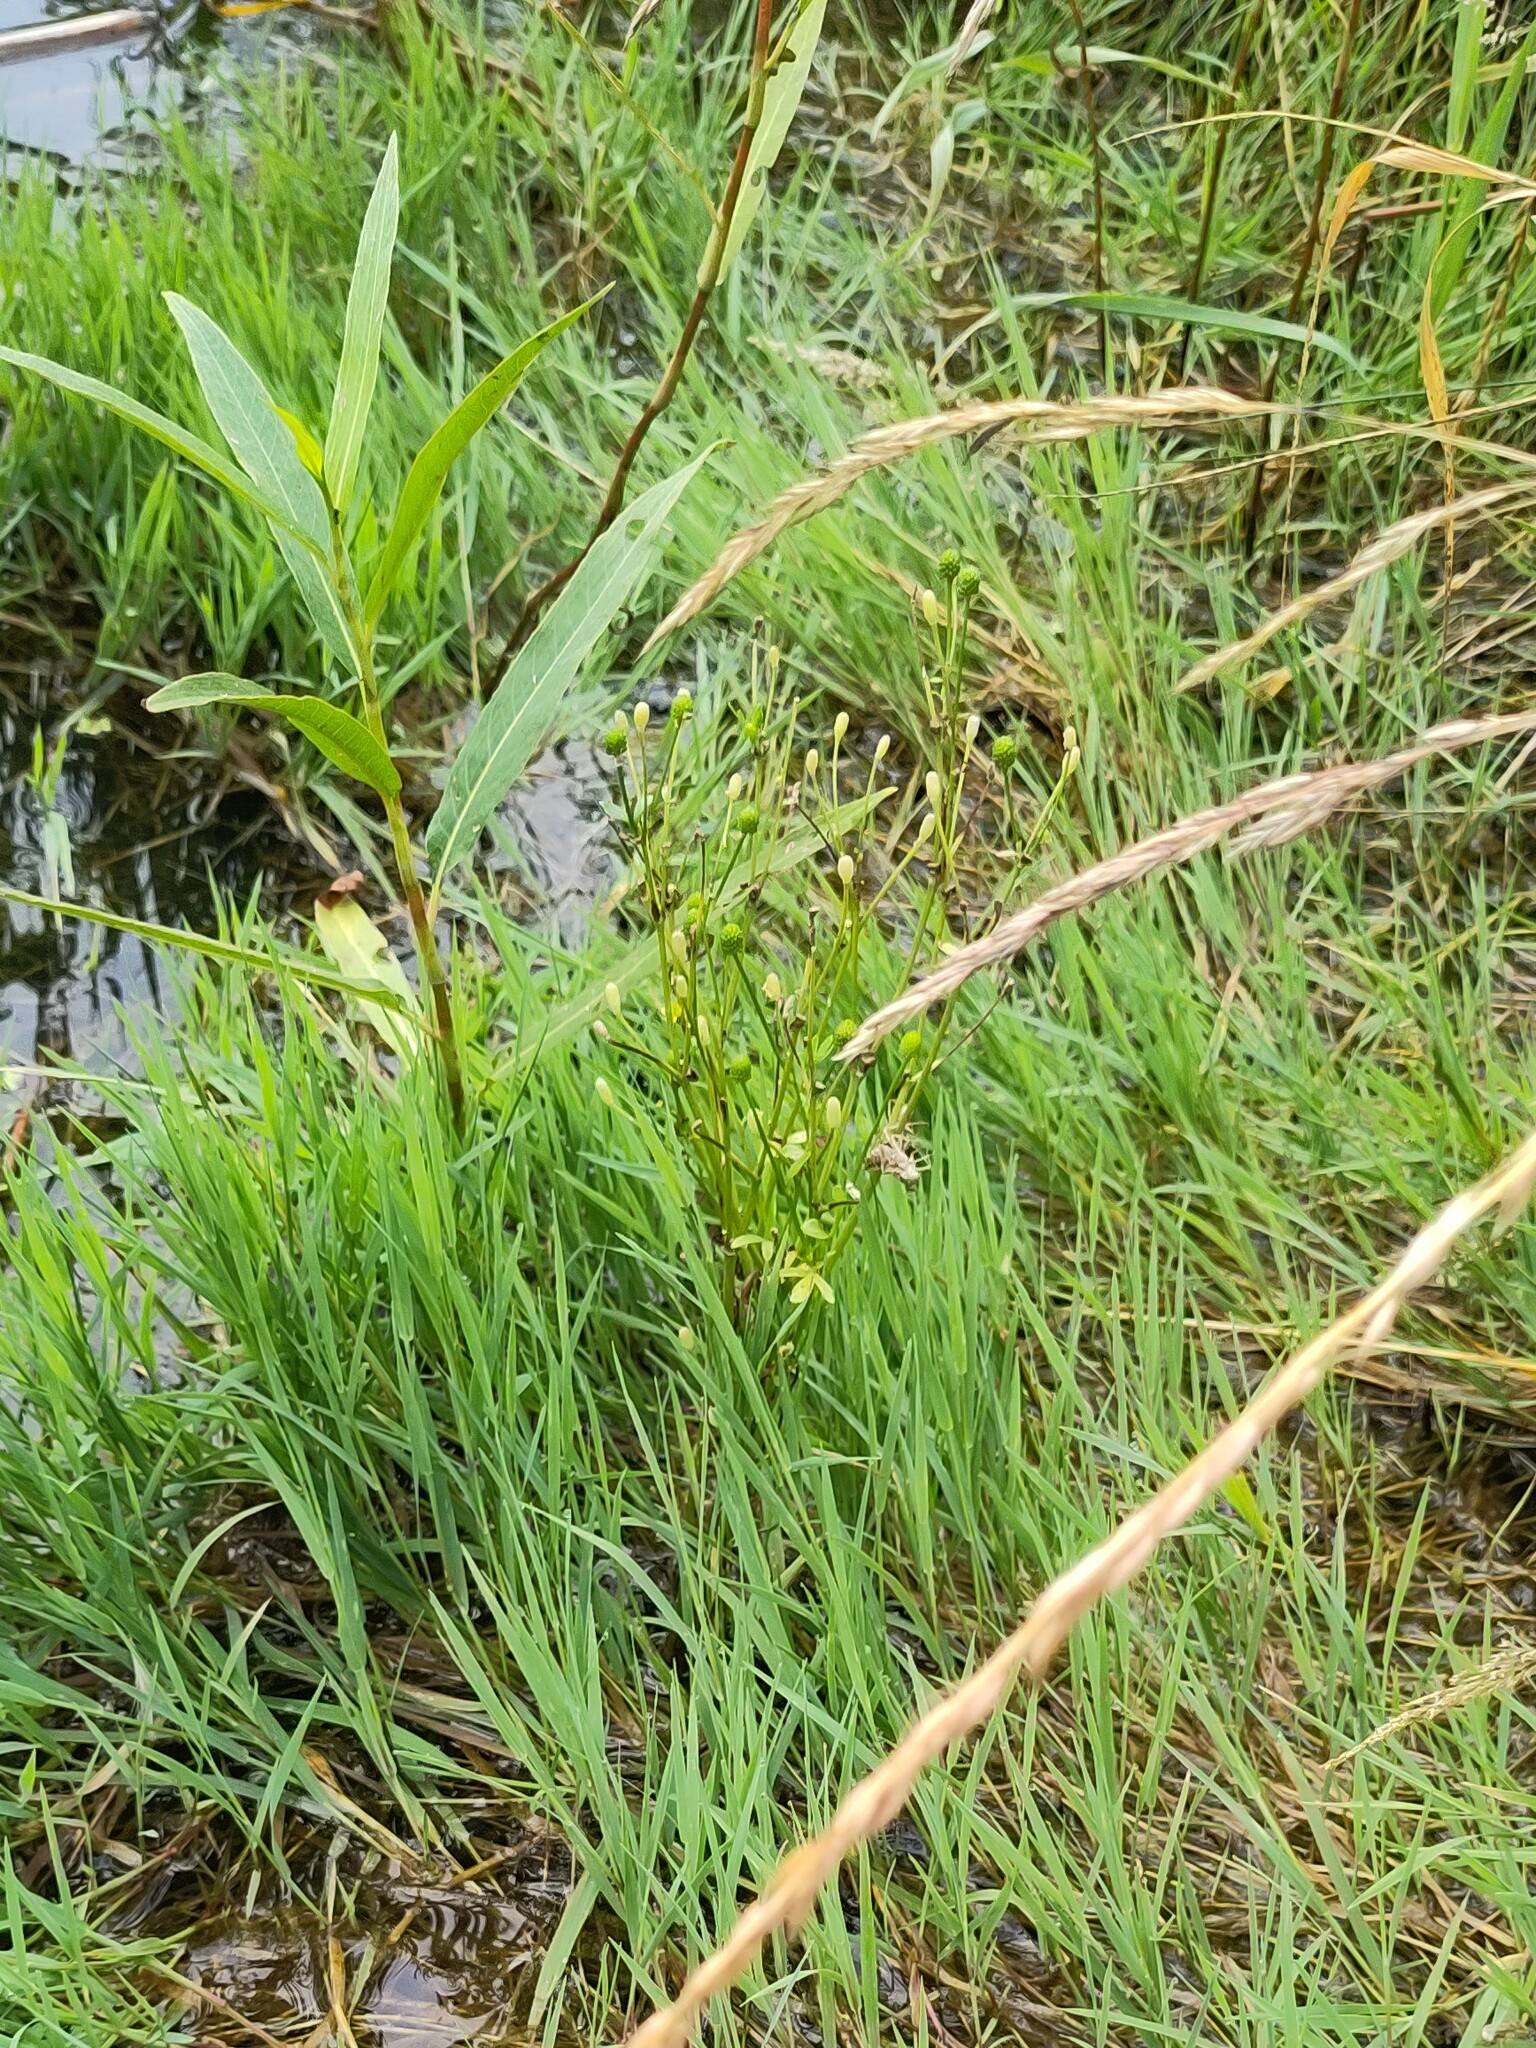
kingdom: Plantae
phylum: Tracheophyta
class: Magnoliopsida
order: Ranunculales
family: Ranunculaceae
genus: Ranunculus
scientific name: Ranunculus sceleratus
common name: Celery-leaved buttercup
